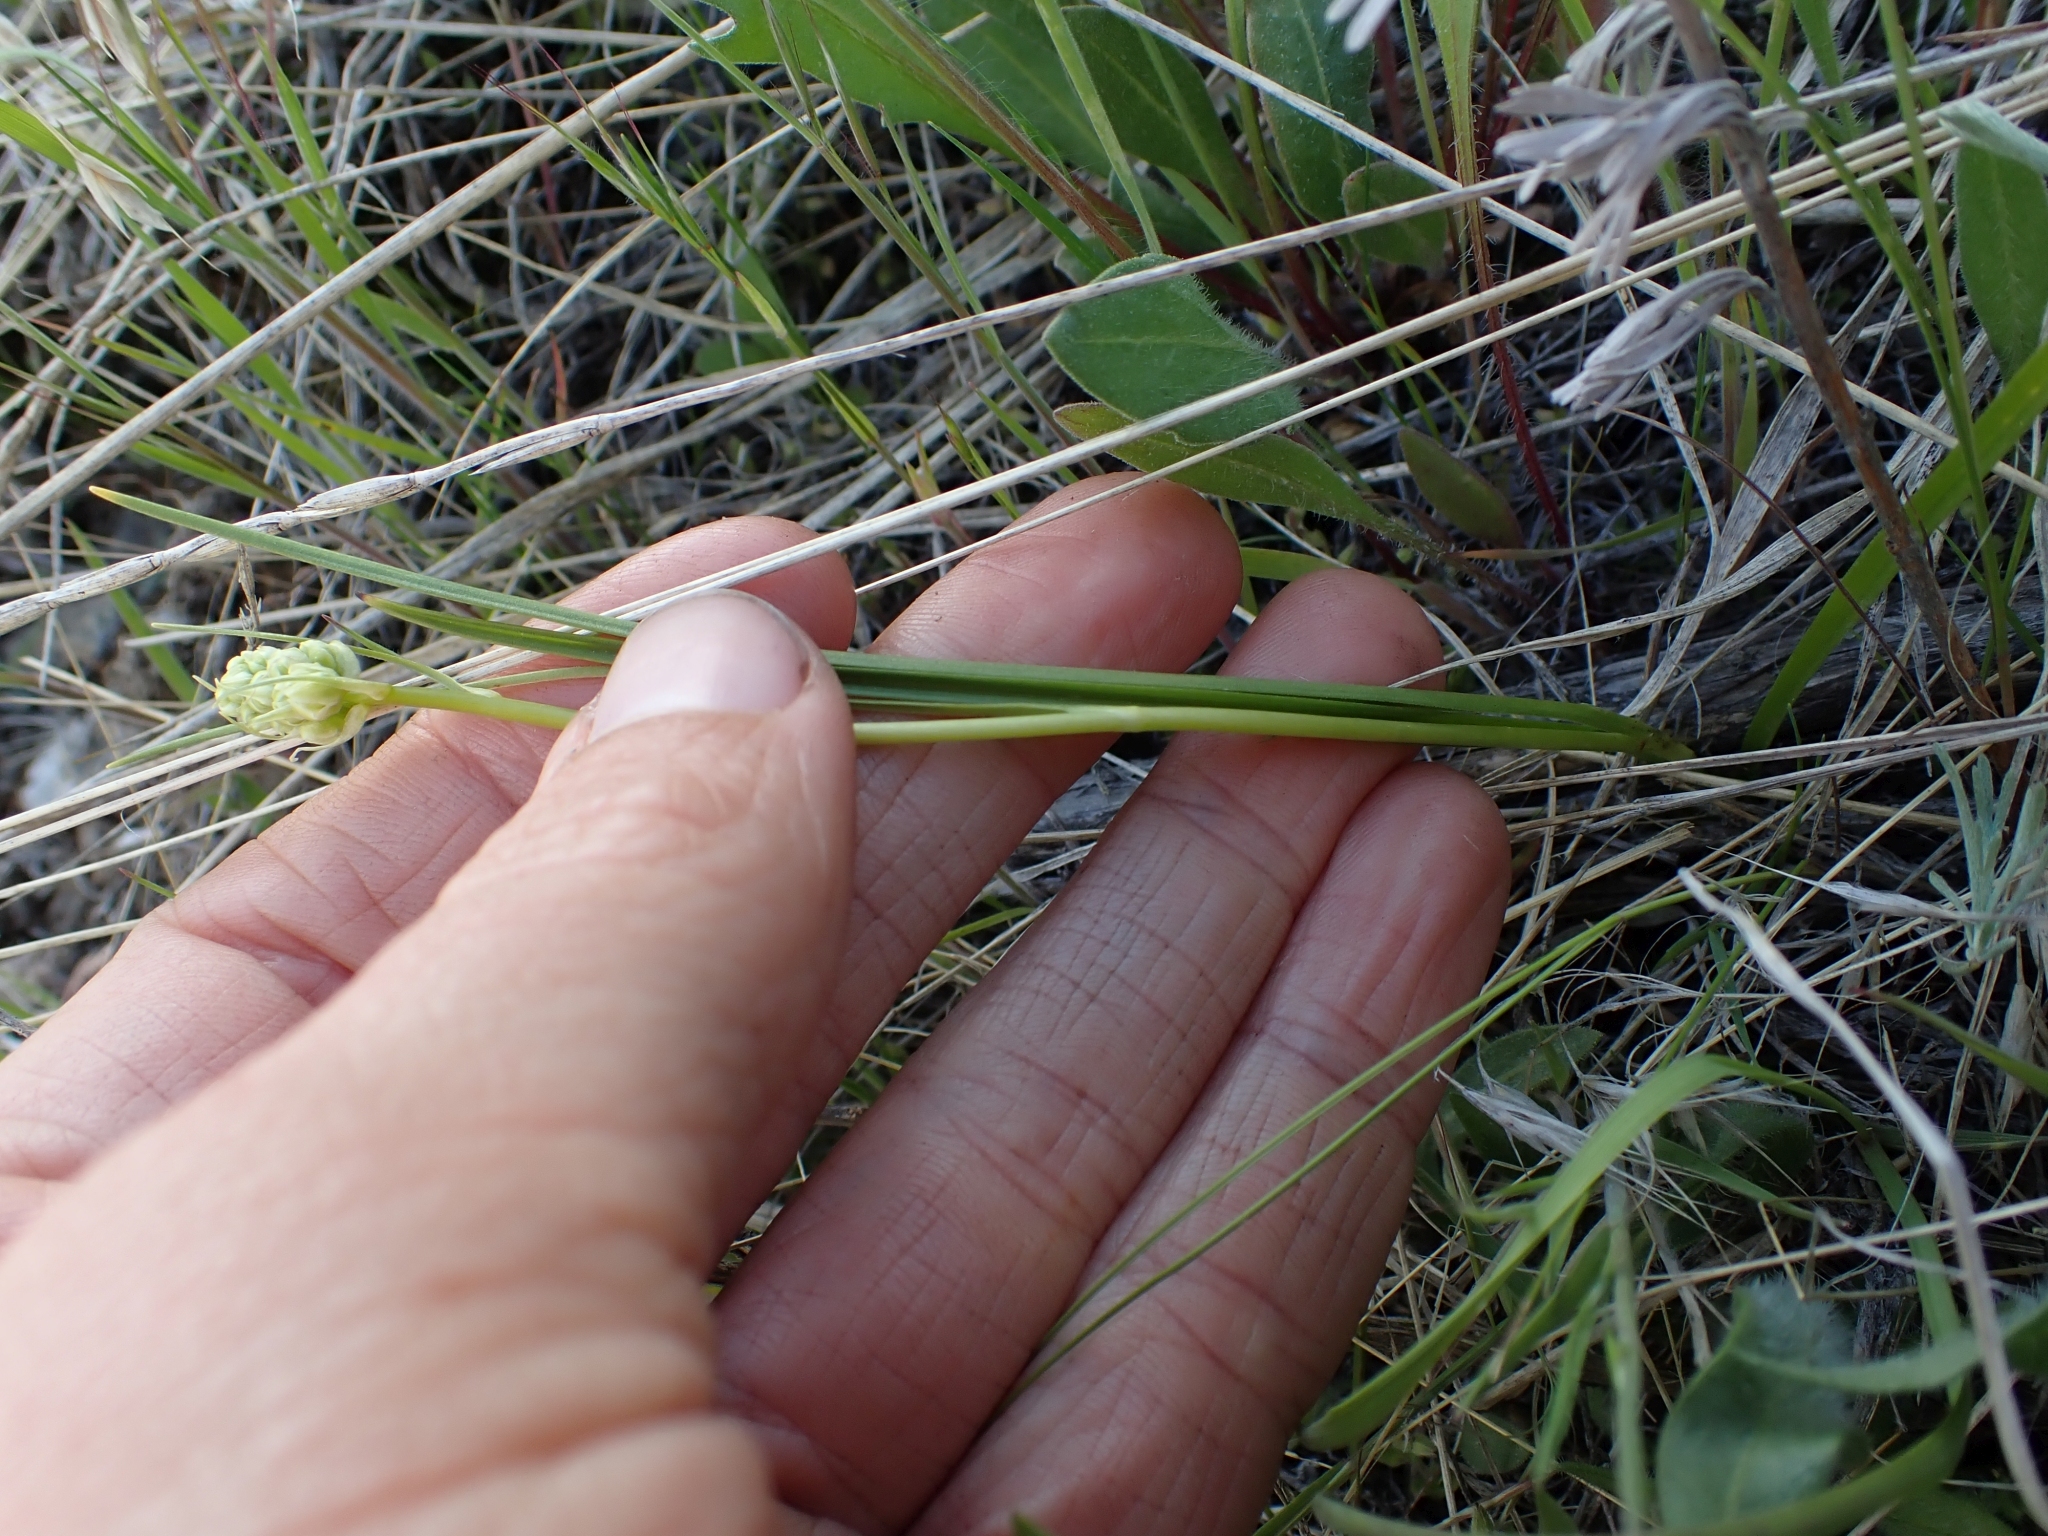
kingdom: Plantae
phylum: Tracheophyta
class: Liliopsida
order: Liliales
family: Melanthiaceae
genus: Toxicoscordion
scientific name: Toxicoscordion venenosum
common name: Meadow death camas
